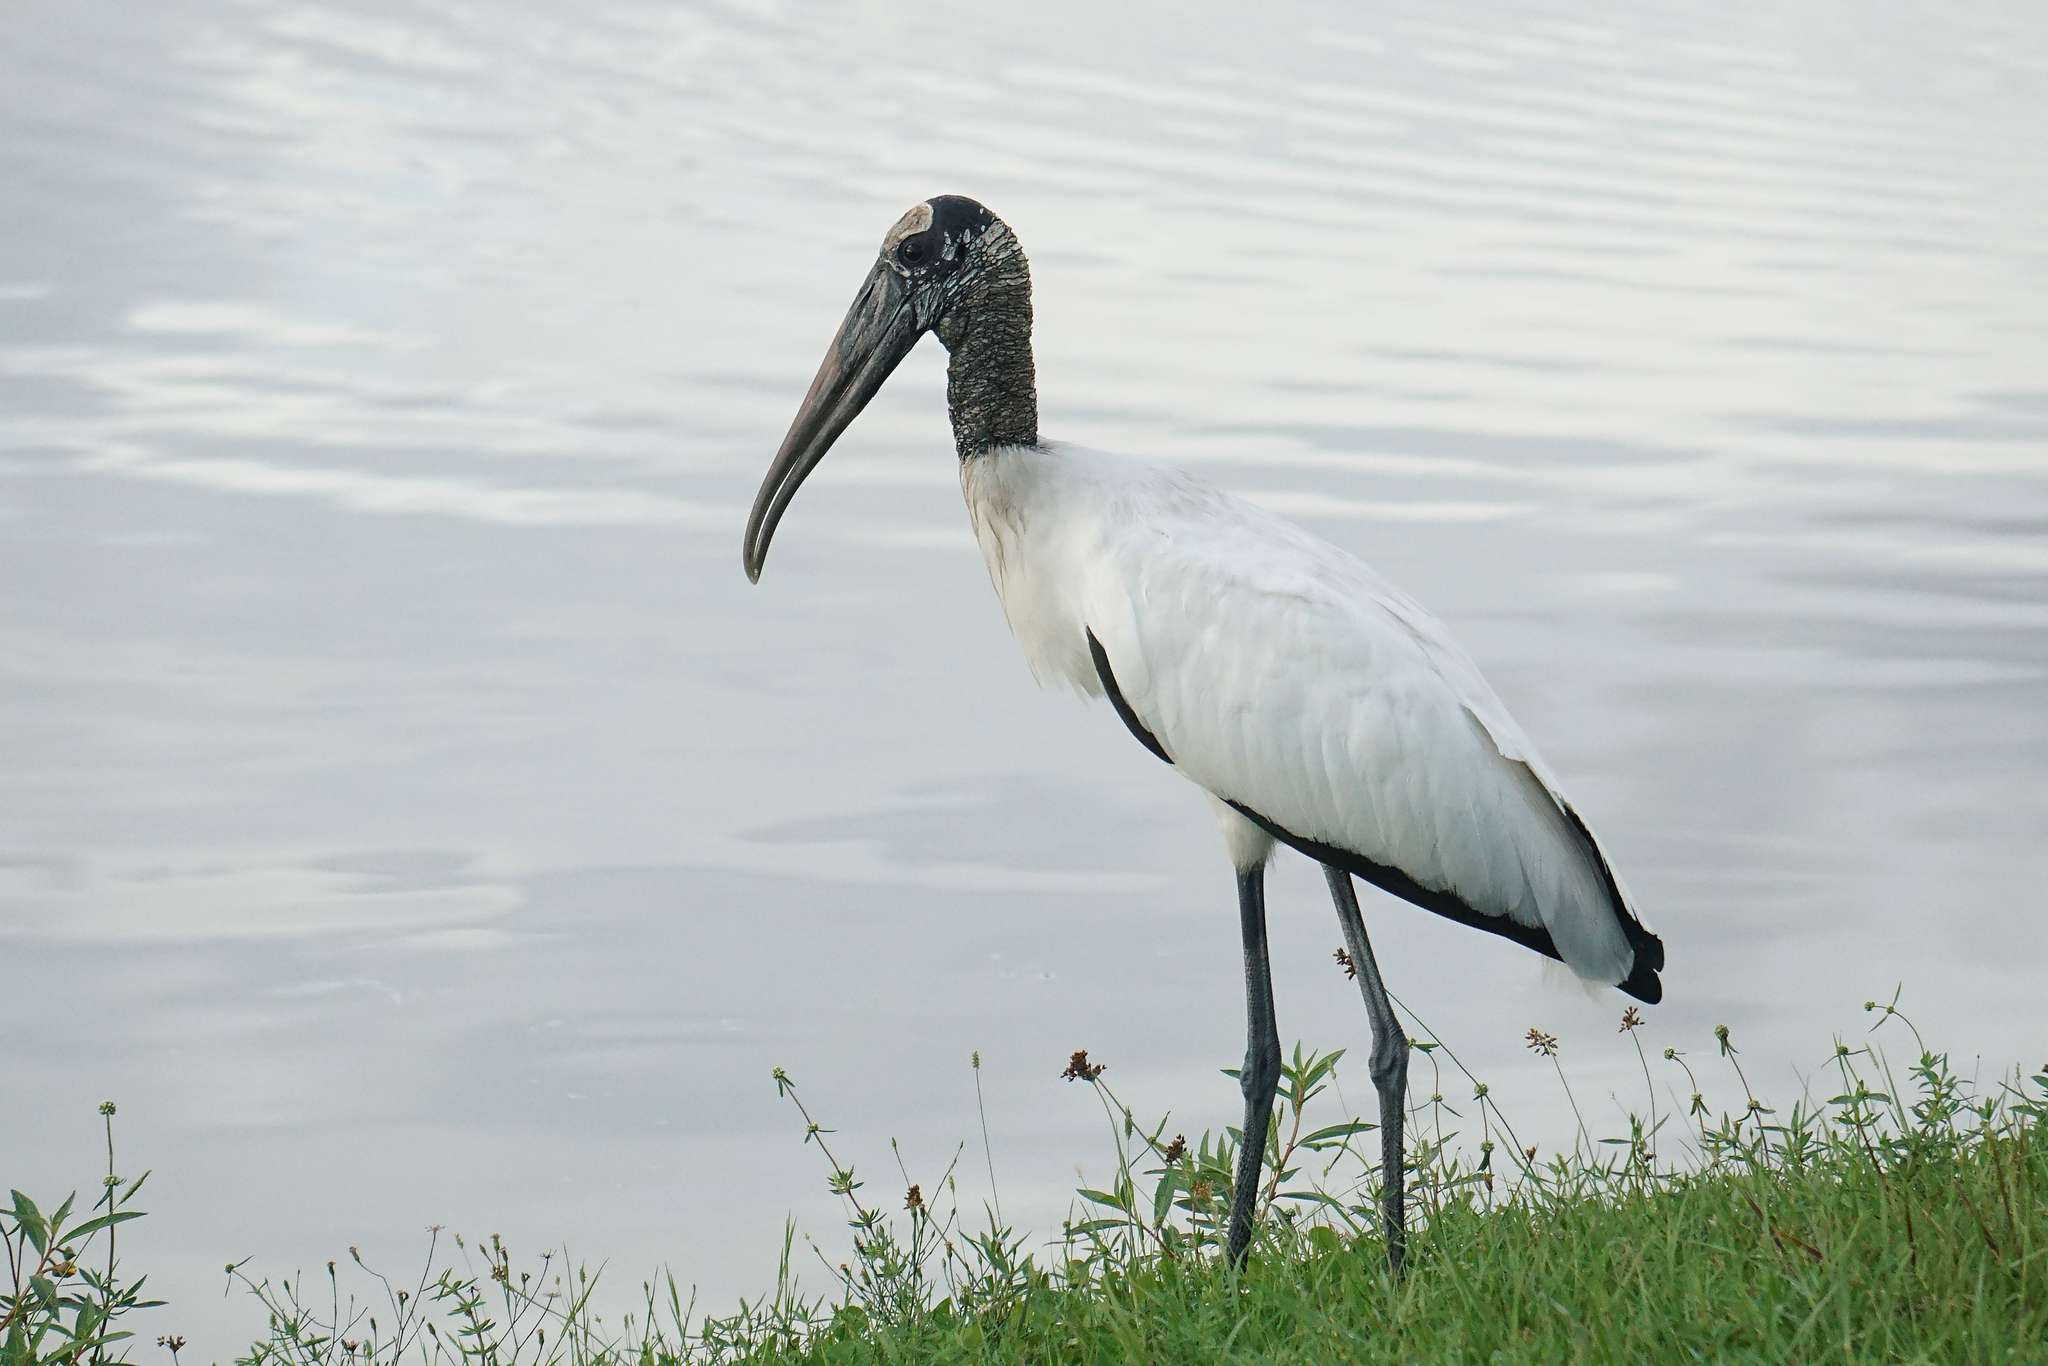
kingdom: Animalia
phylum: Chordata
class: Aves
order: Ciconiiformes
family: Ciconiidae
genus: Mycteria
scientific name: Mycteria americana
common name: Wood stork
